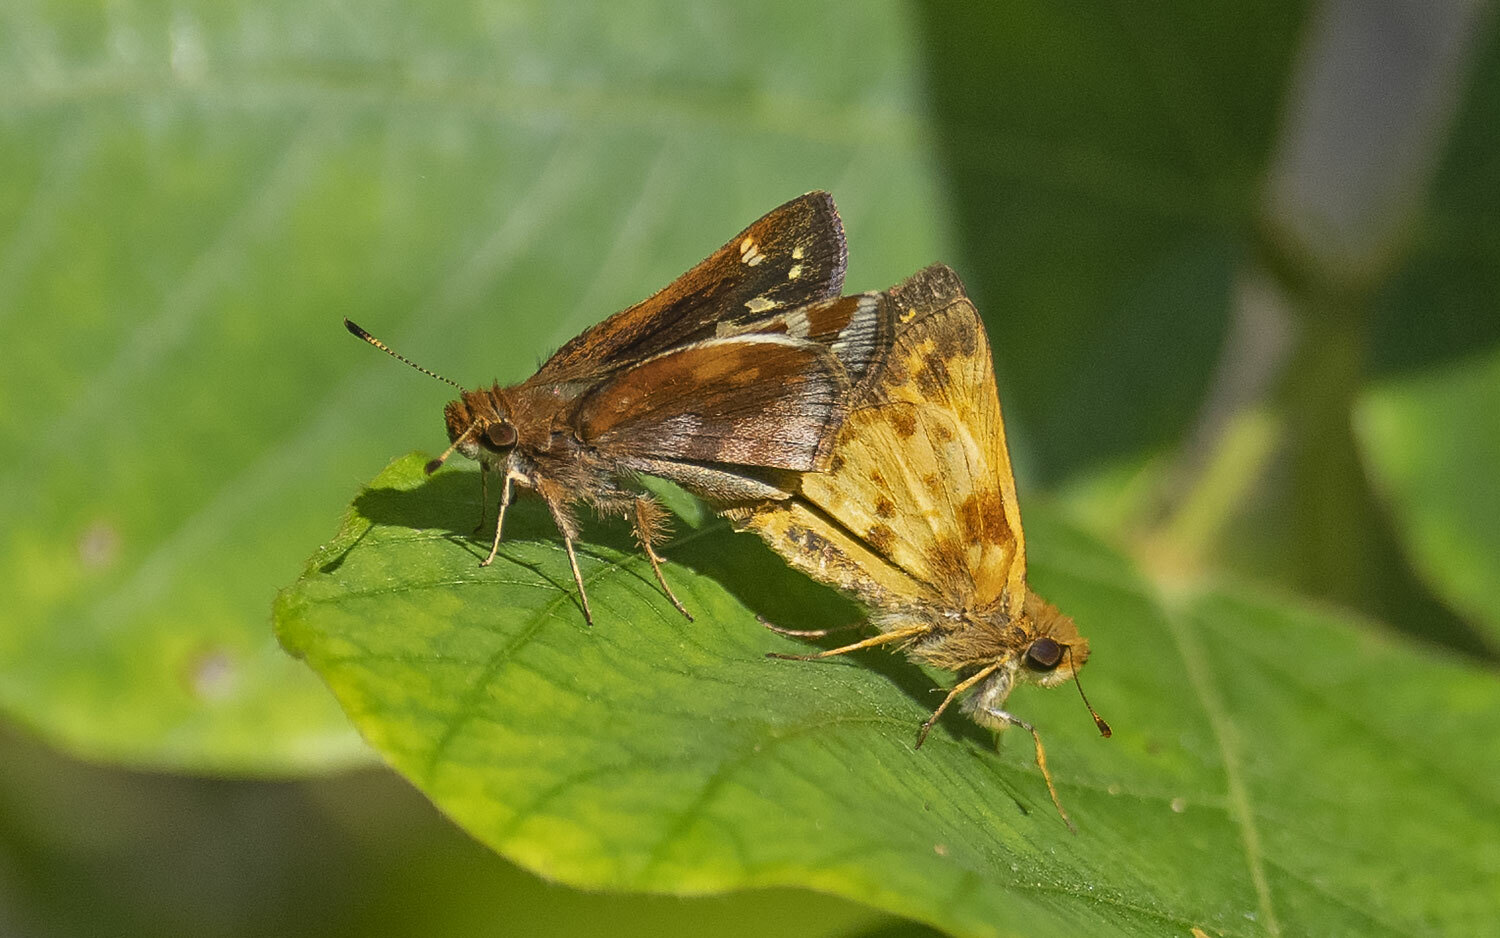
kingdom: Animalia
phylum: Arthropoda
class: Insecta
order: Lepidoptera
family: Hesperiidae
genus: Lon
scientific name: Lon zabulon
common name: Zabulon skipper
